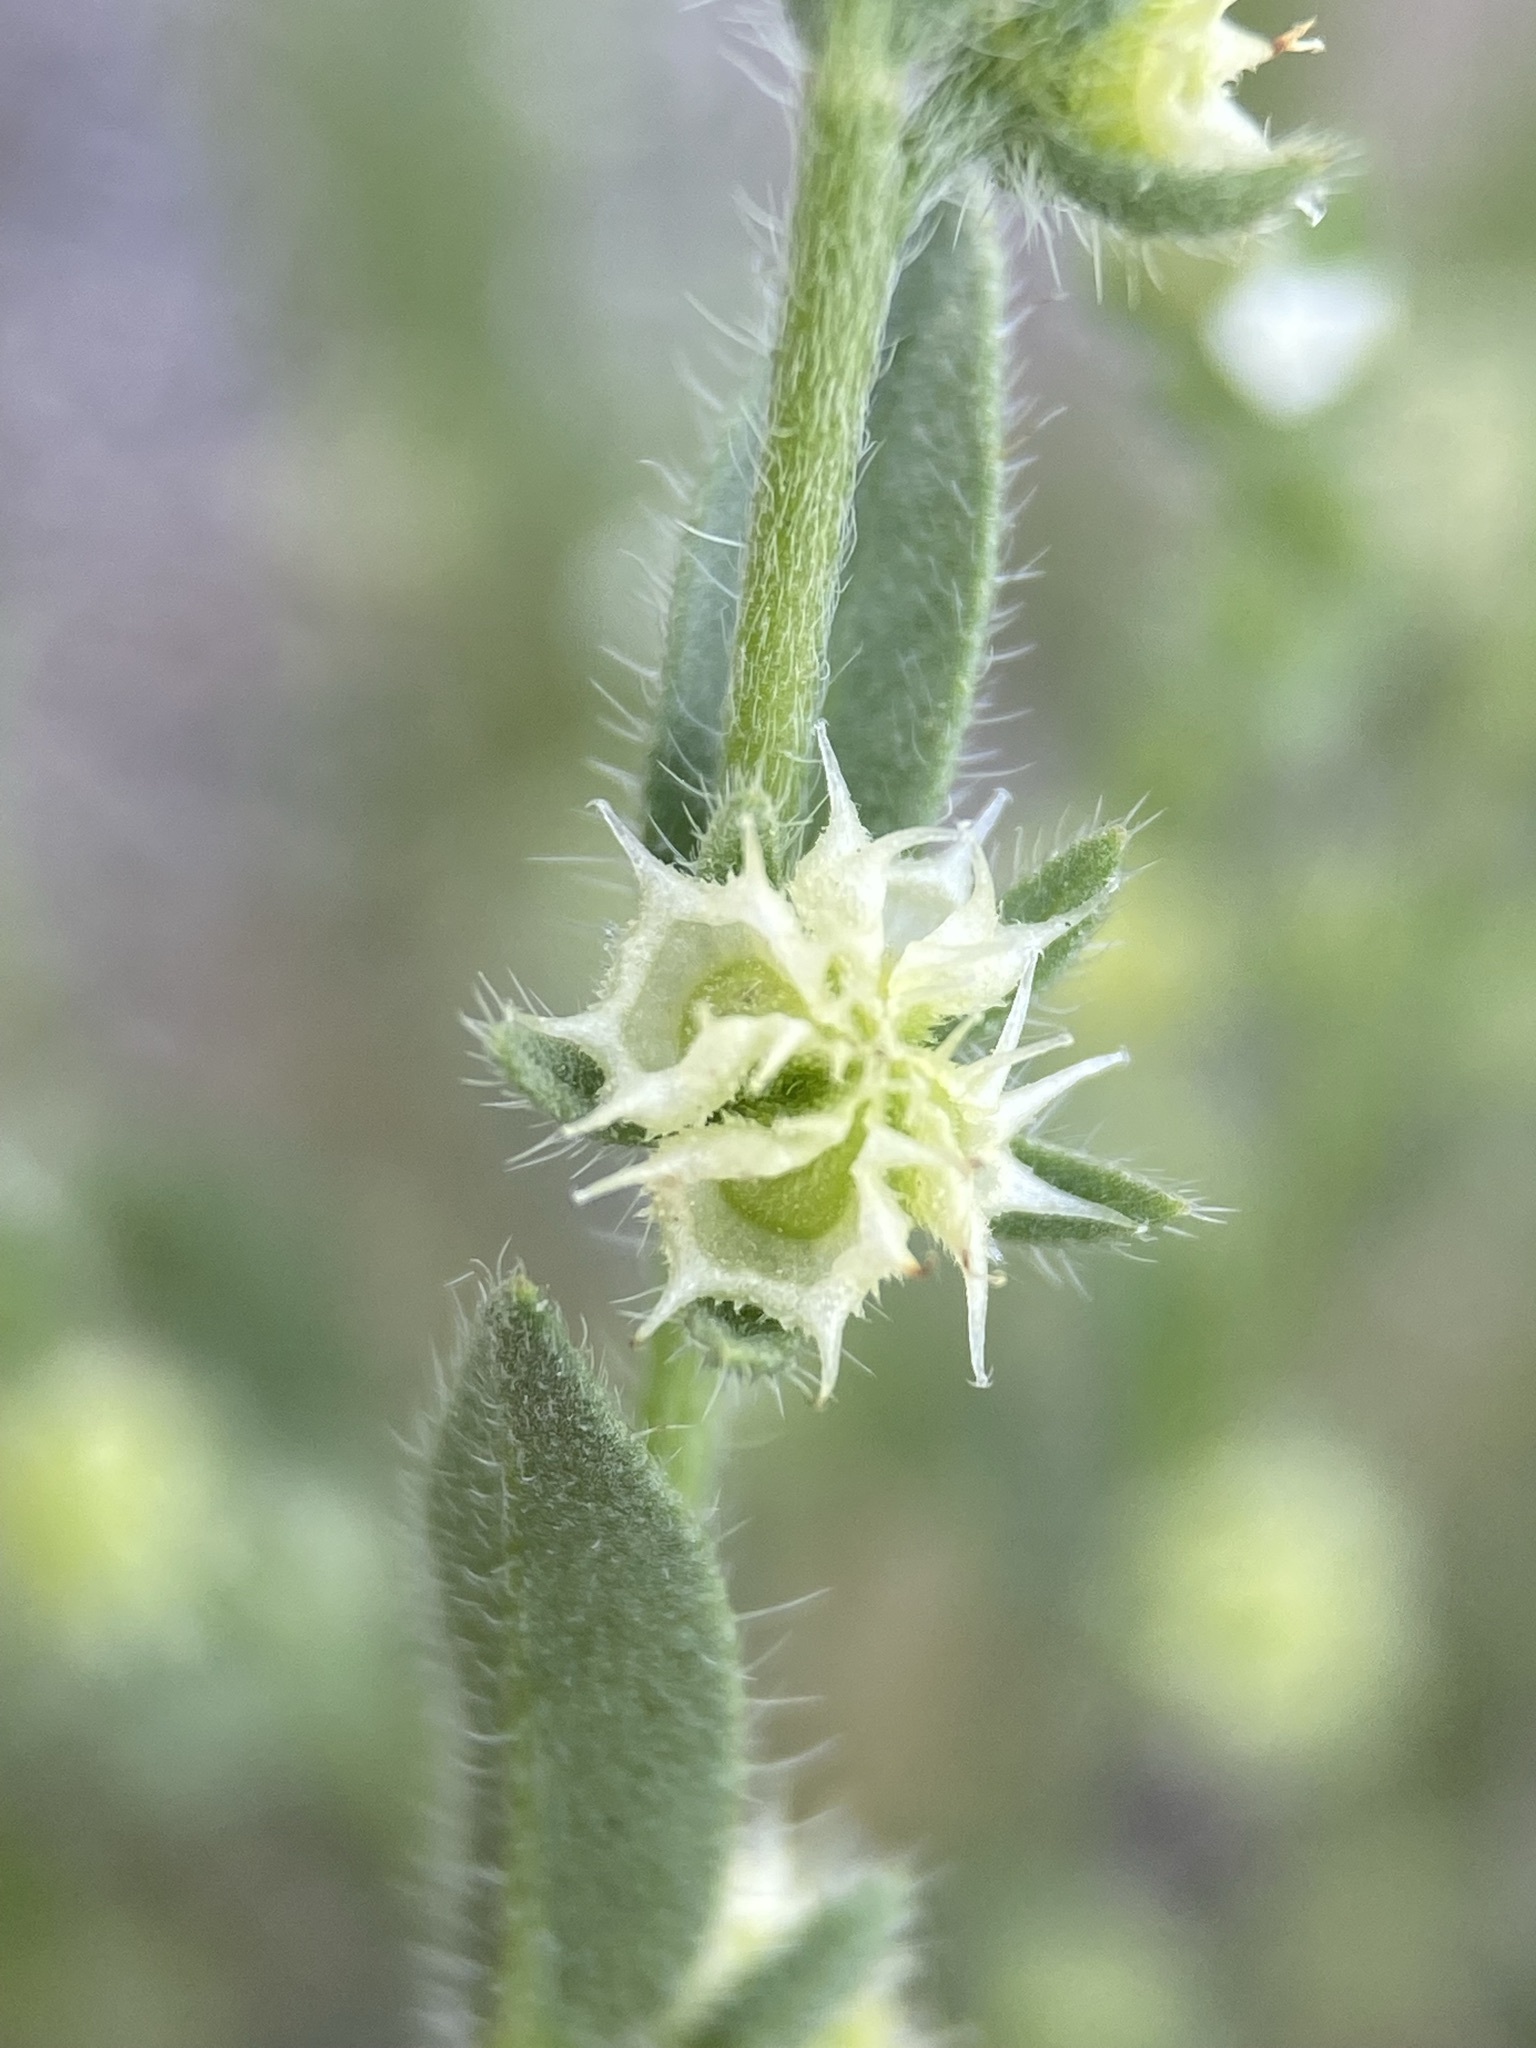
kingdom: Plantae
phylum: Tracheophyta
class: Magnoliopsida
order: Boraginales
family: Boraginaceae
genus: Lappula
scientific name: Lappula occidentalis
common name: Western stickseed
